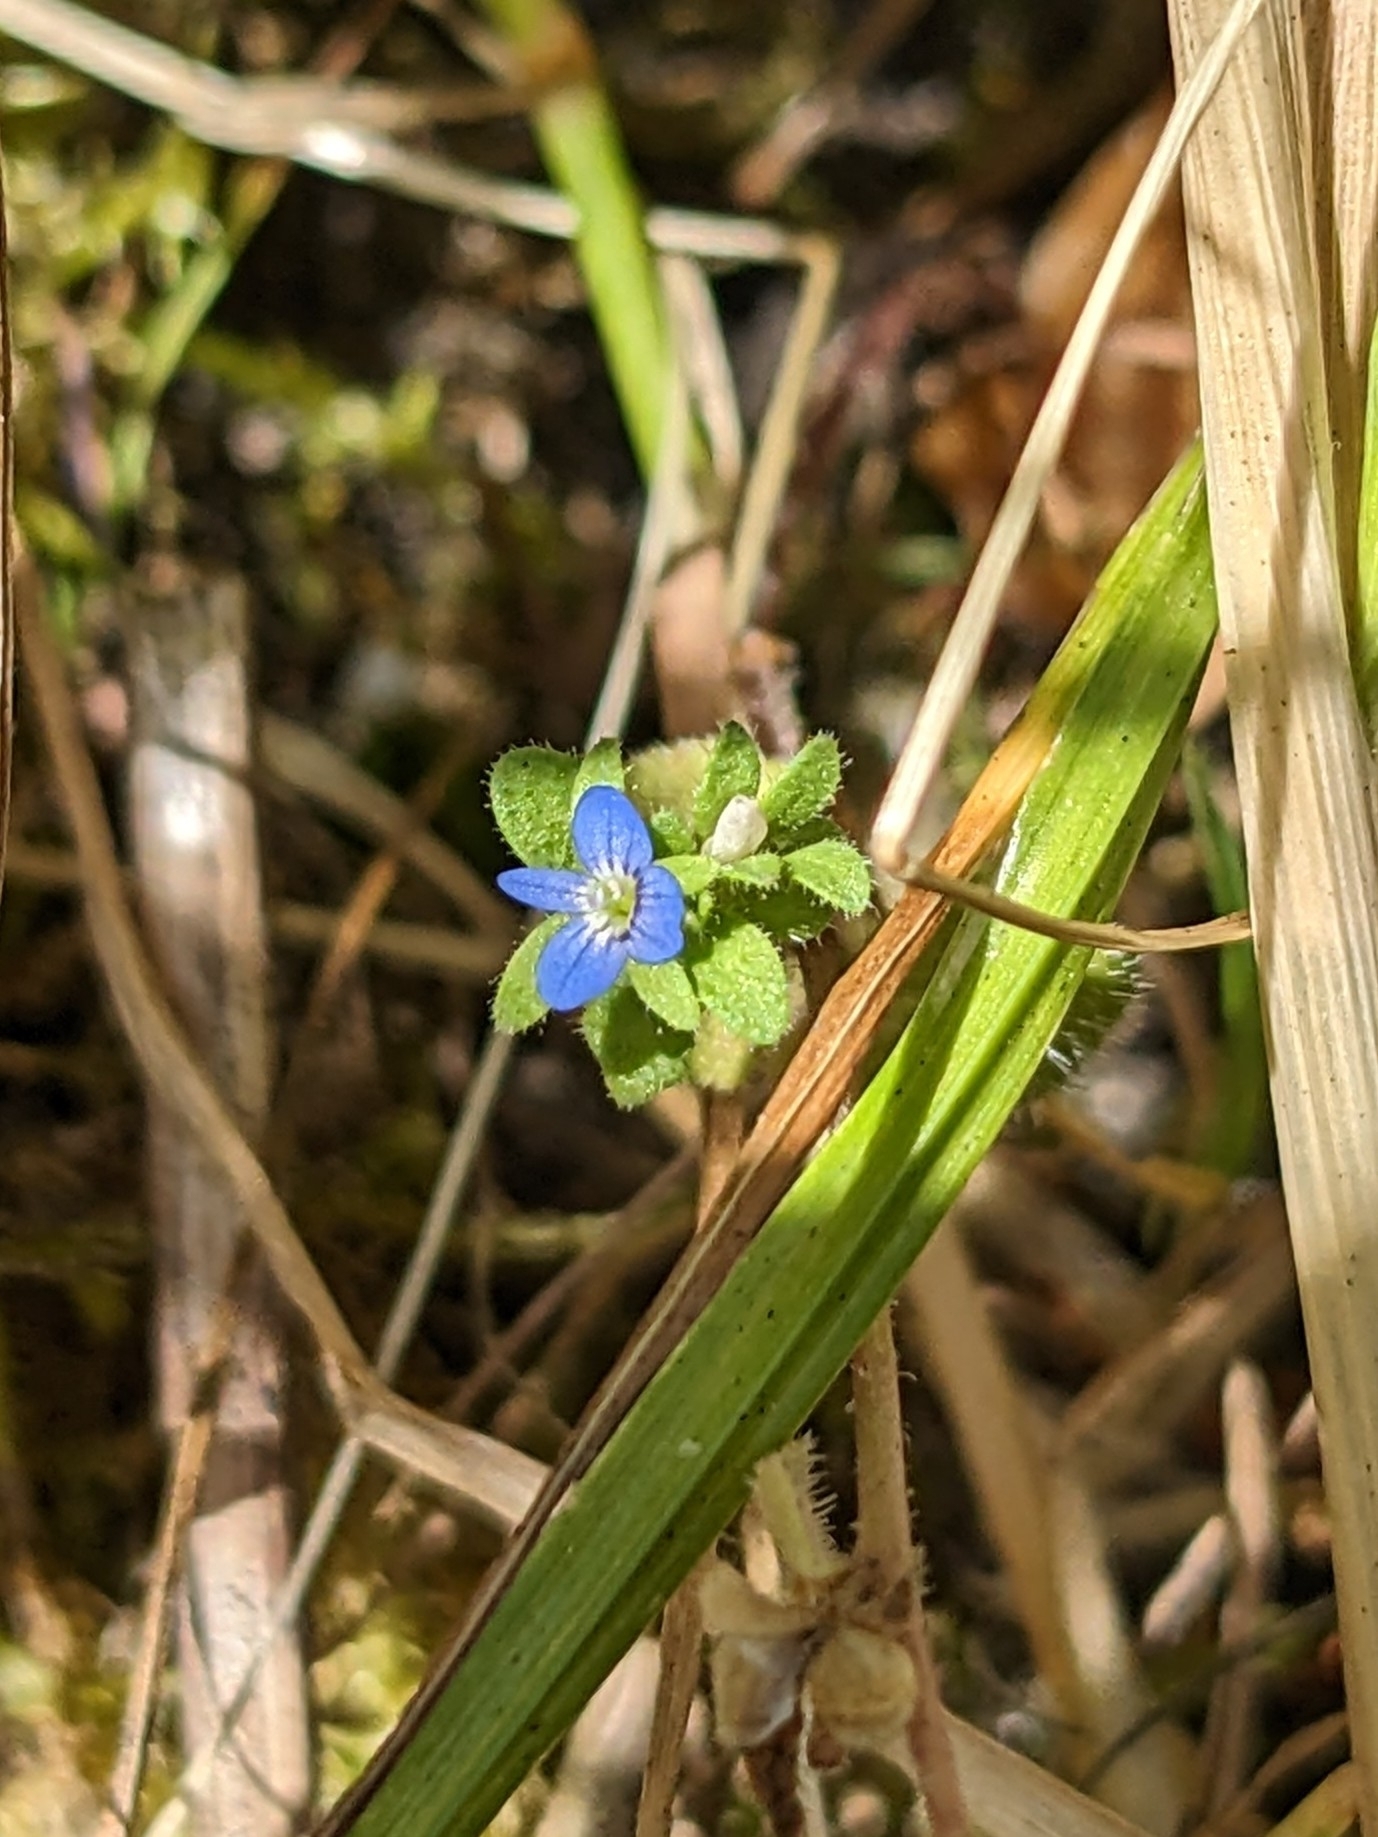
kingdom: Plantae
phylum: Tracheophyta
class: Magnoliopsida
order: Lamiales
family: Plantaginaceae
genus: Veronica
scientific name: Veronica arvensis
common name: Corn speedwell
